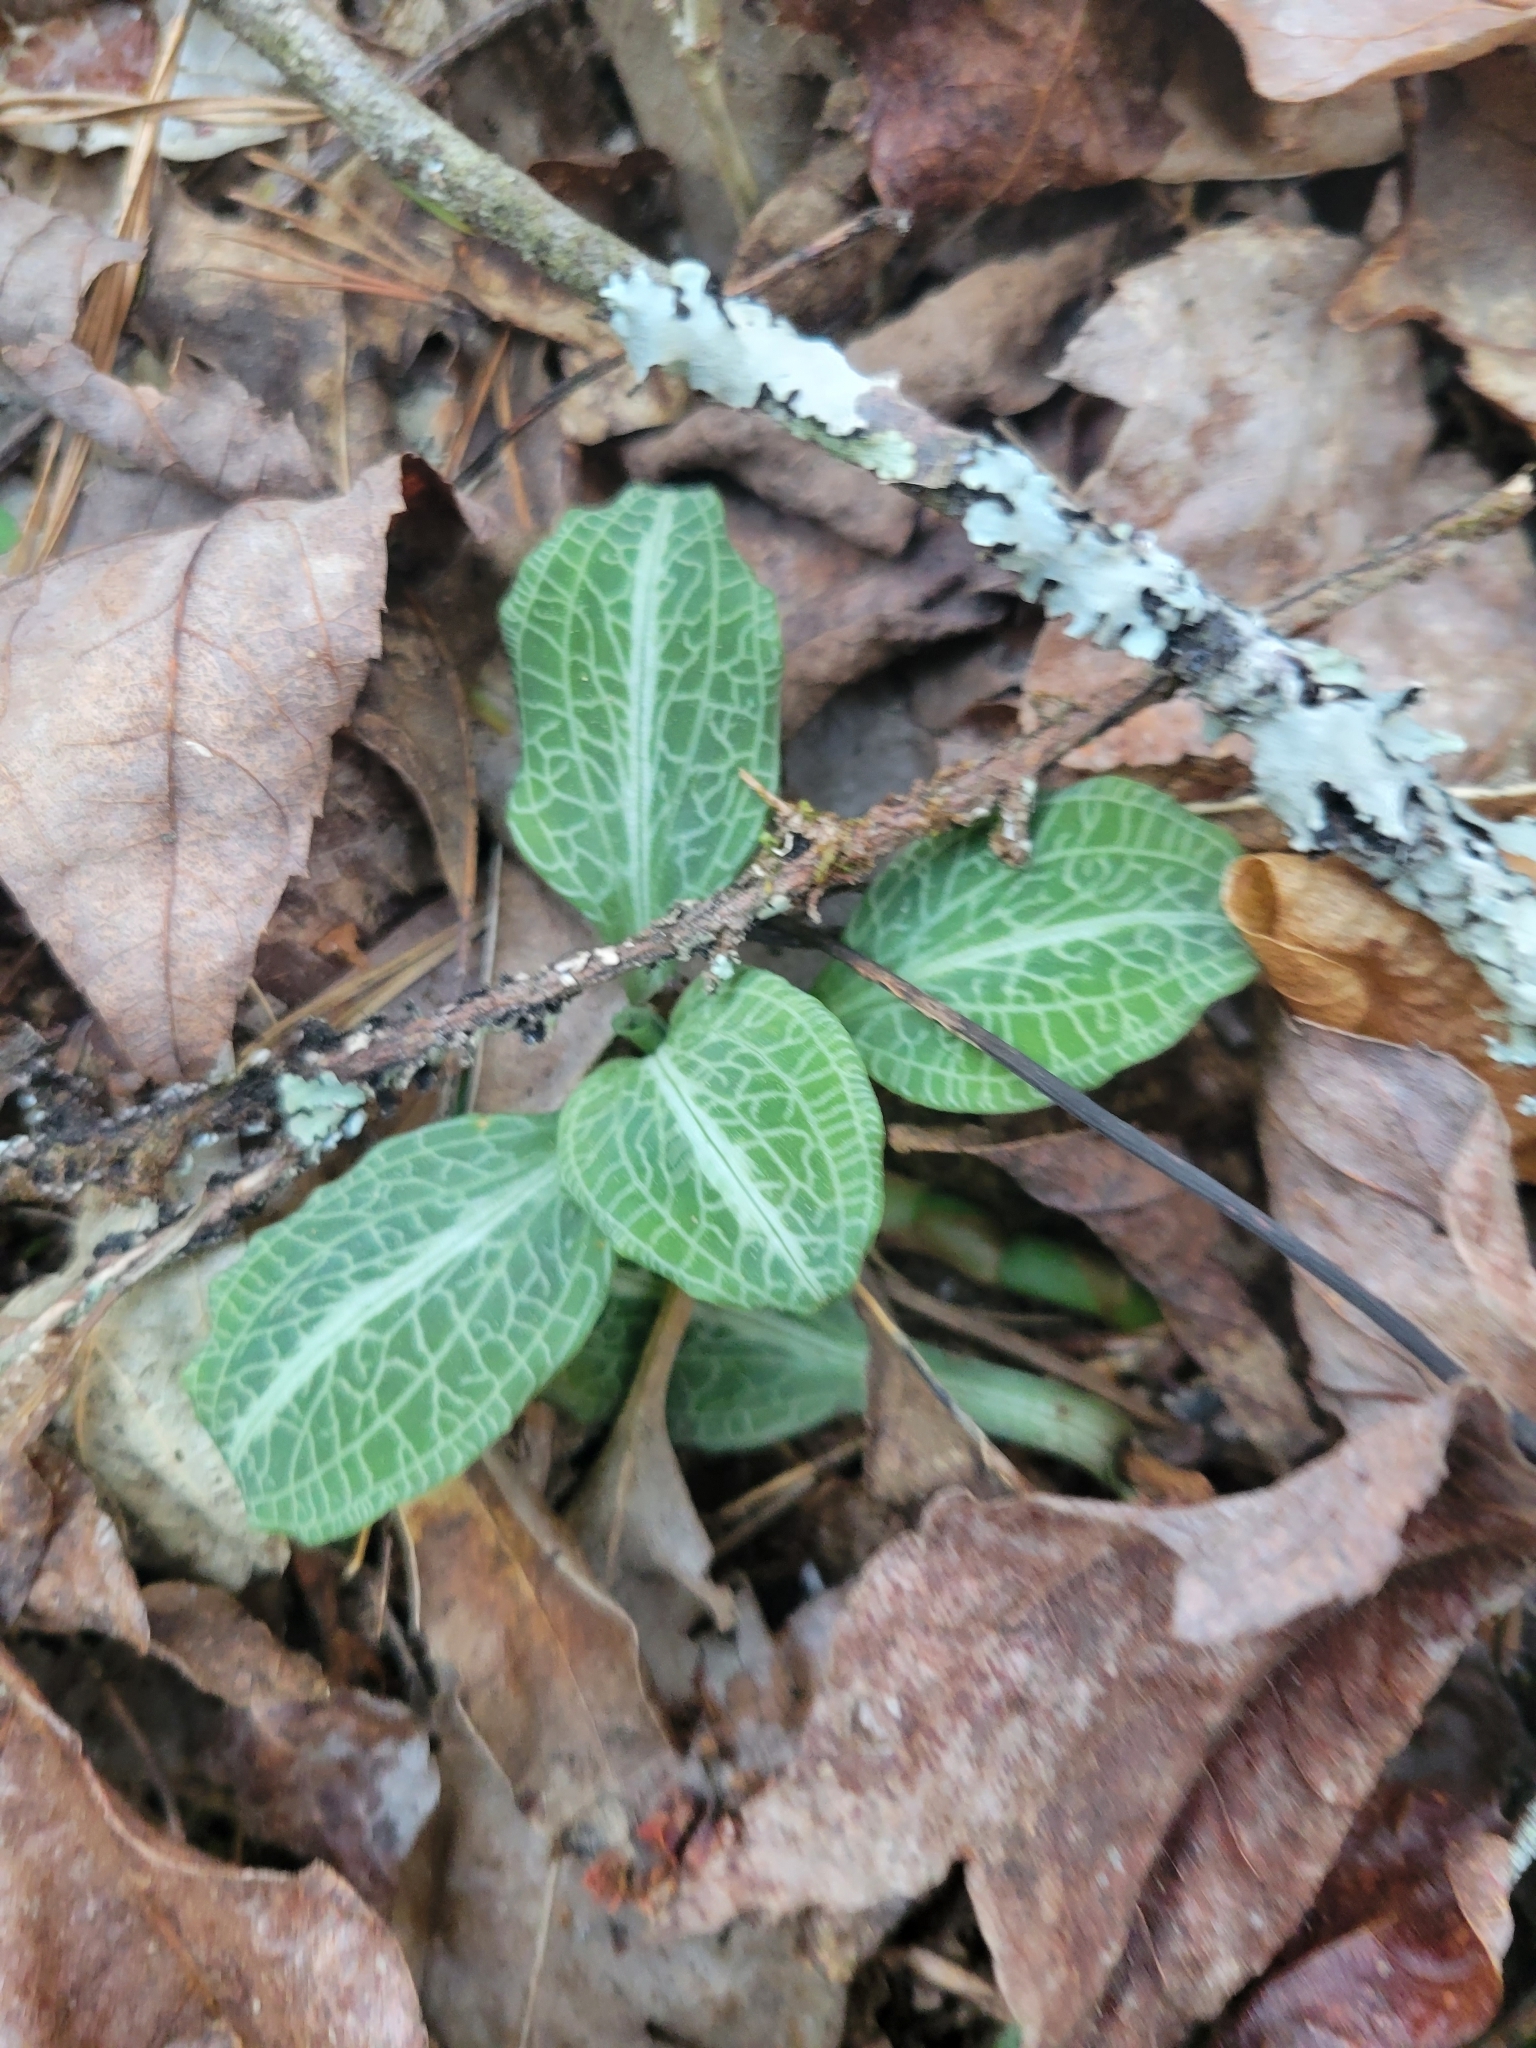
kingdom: Plantae
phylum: Tracheophyta
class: Liliopsida
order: Asparagales
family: Orchidaceae
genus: Goodyera
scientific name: Goodyera pubescens
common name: Downy rattlesnake-plantain
